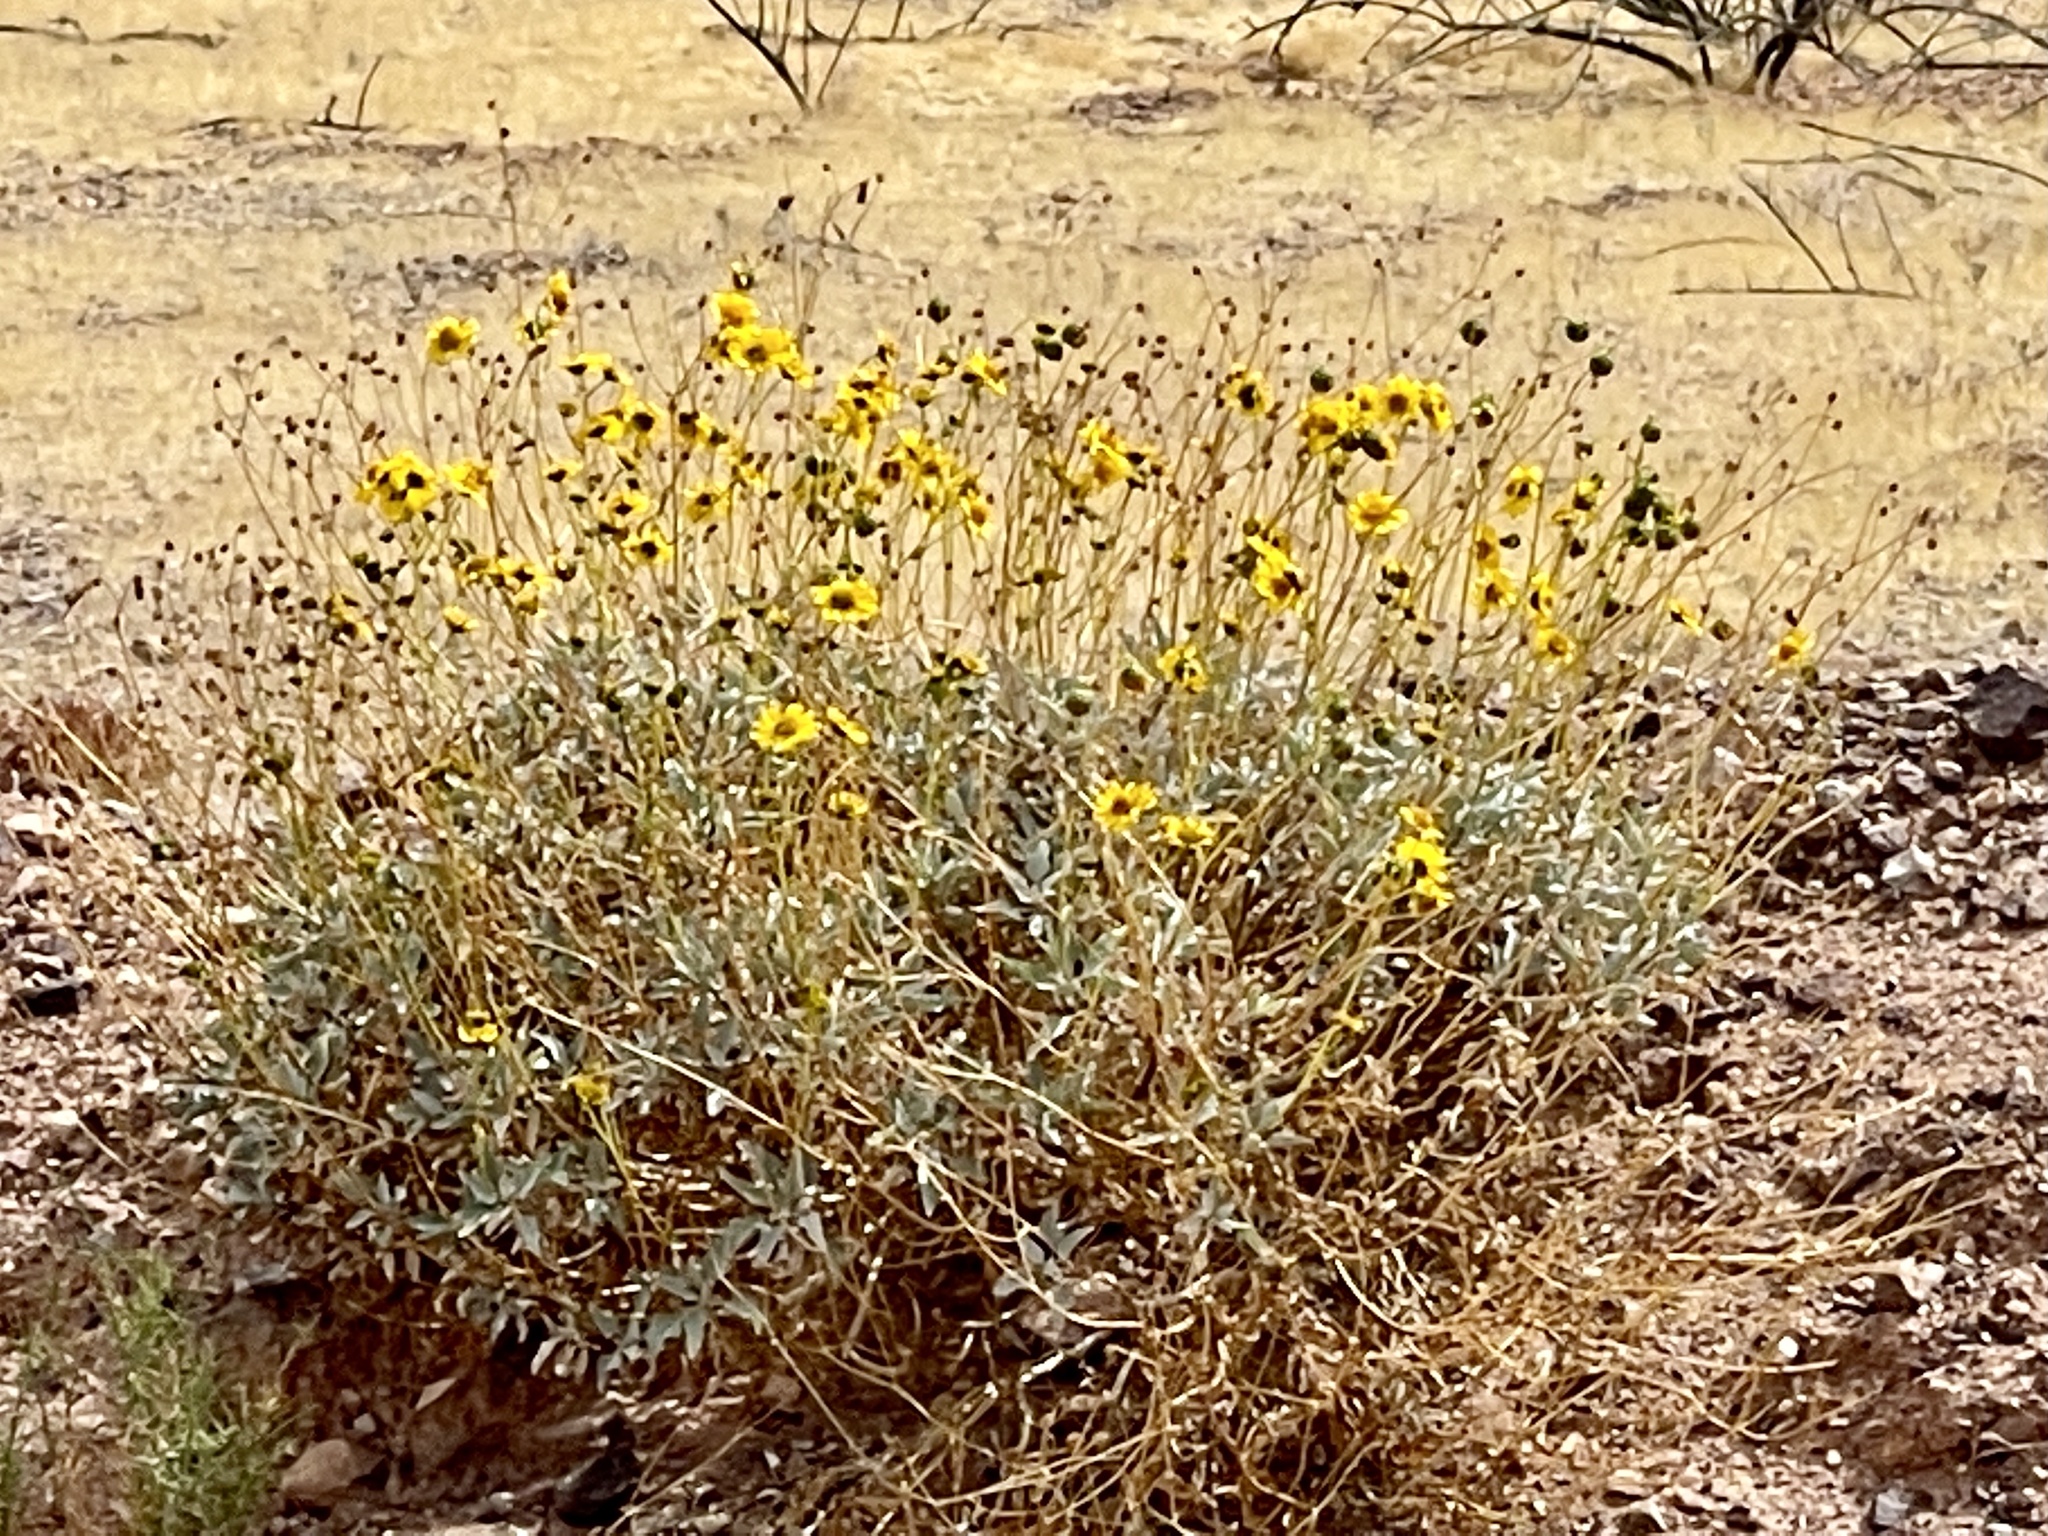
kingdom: Plantae
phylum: Tracheophyta
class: Magnoliopsida
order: Asterales
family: Asteraceae
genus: Encelia
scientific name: Encelia farinosa
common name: Brittlebush
